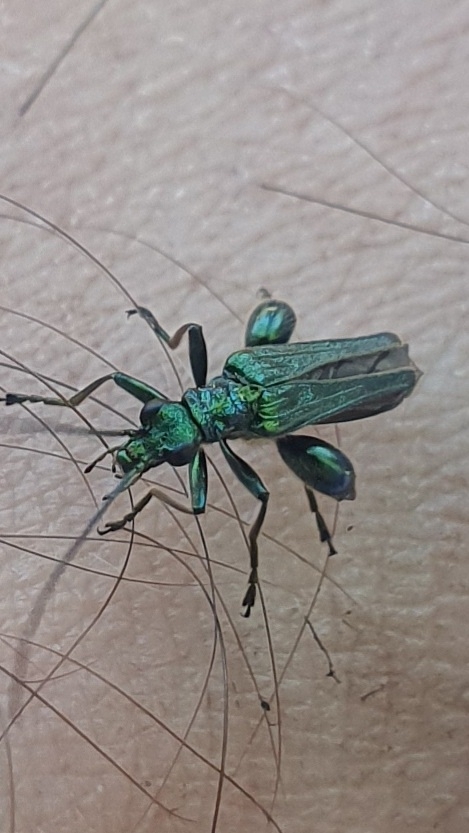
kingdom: Animalia
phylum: Arthropoda
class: Insecta
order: Coleoptera
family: Oedemeridae
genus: Oedemera
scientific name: Oedemera nobilis
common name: Swollen-thighed beetle
